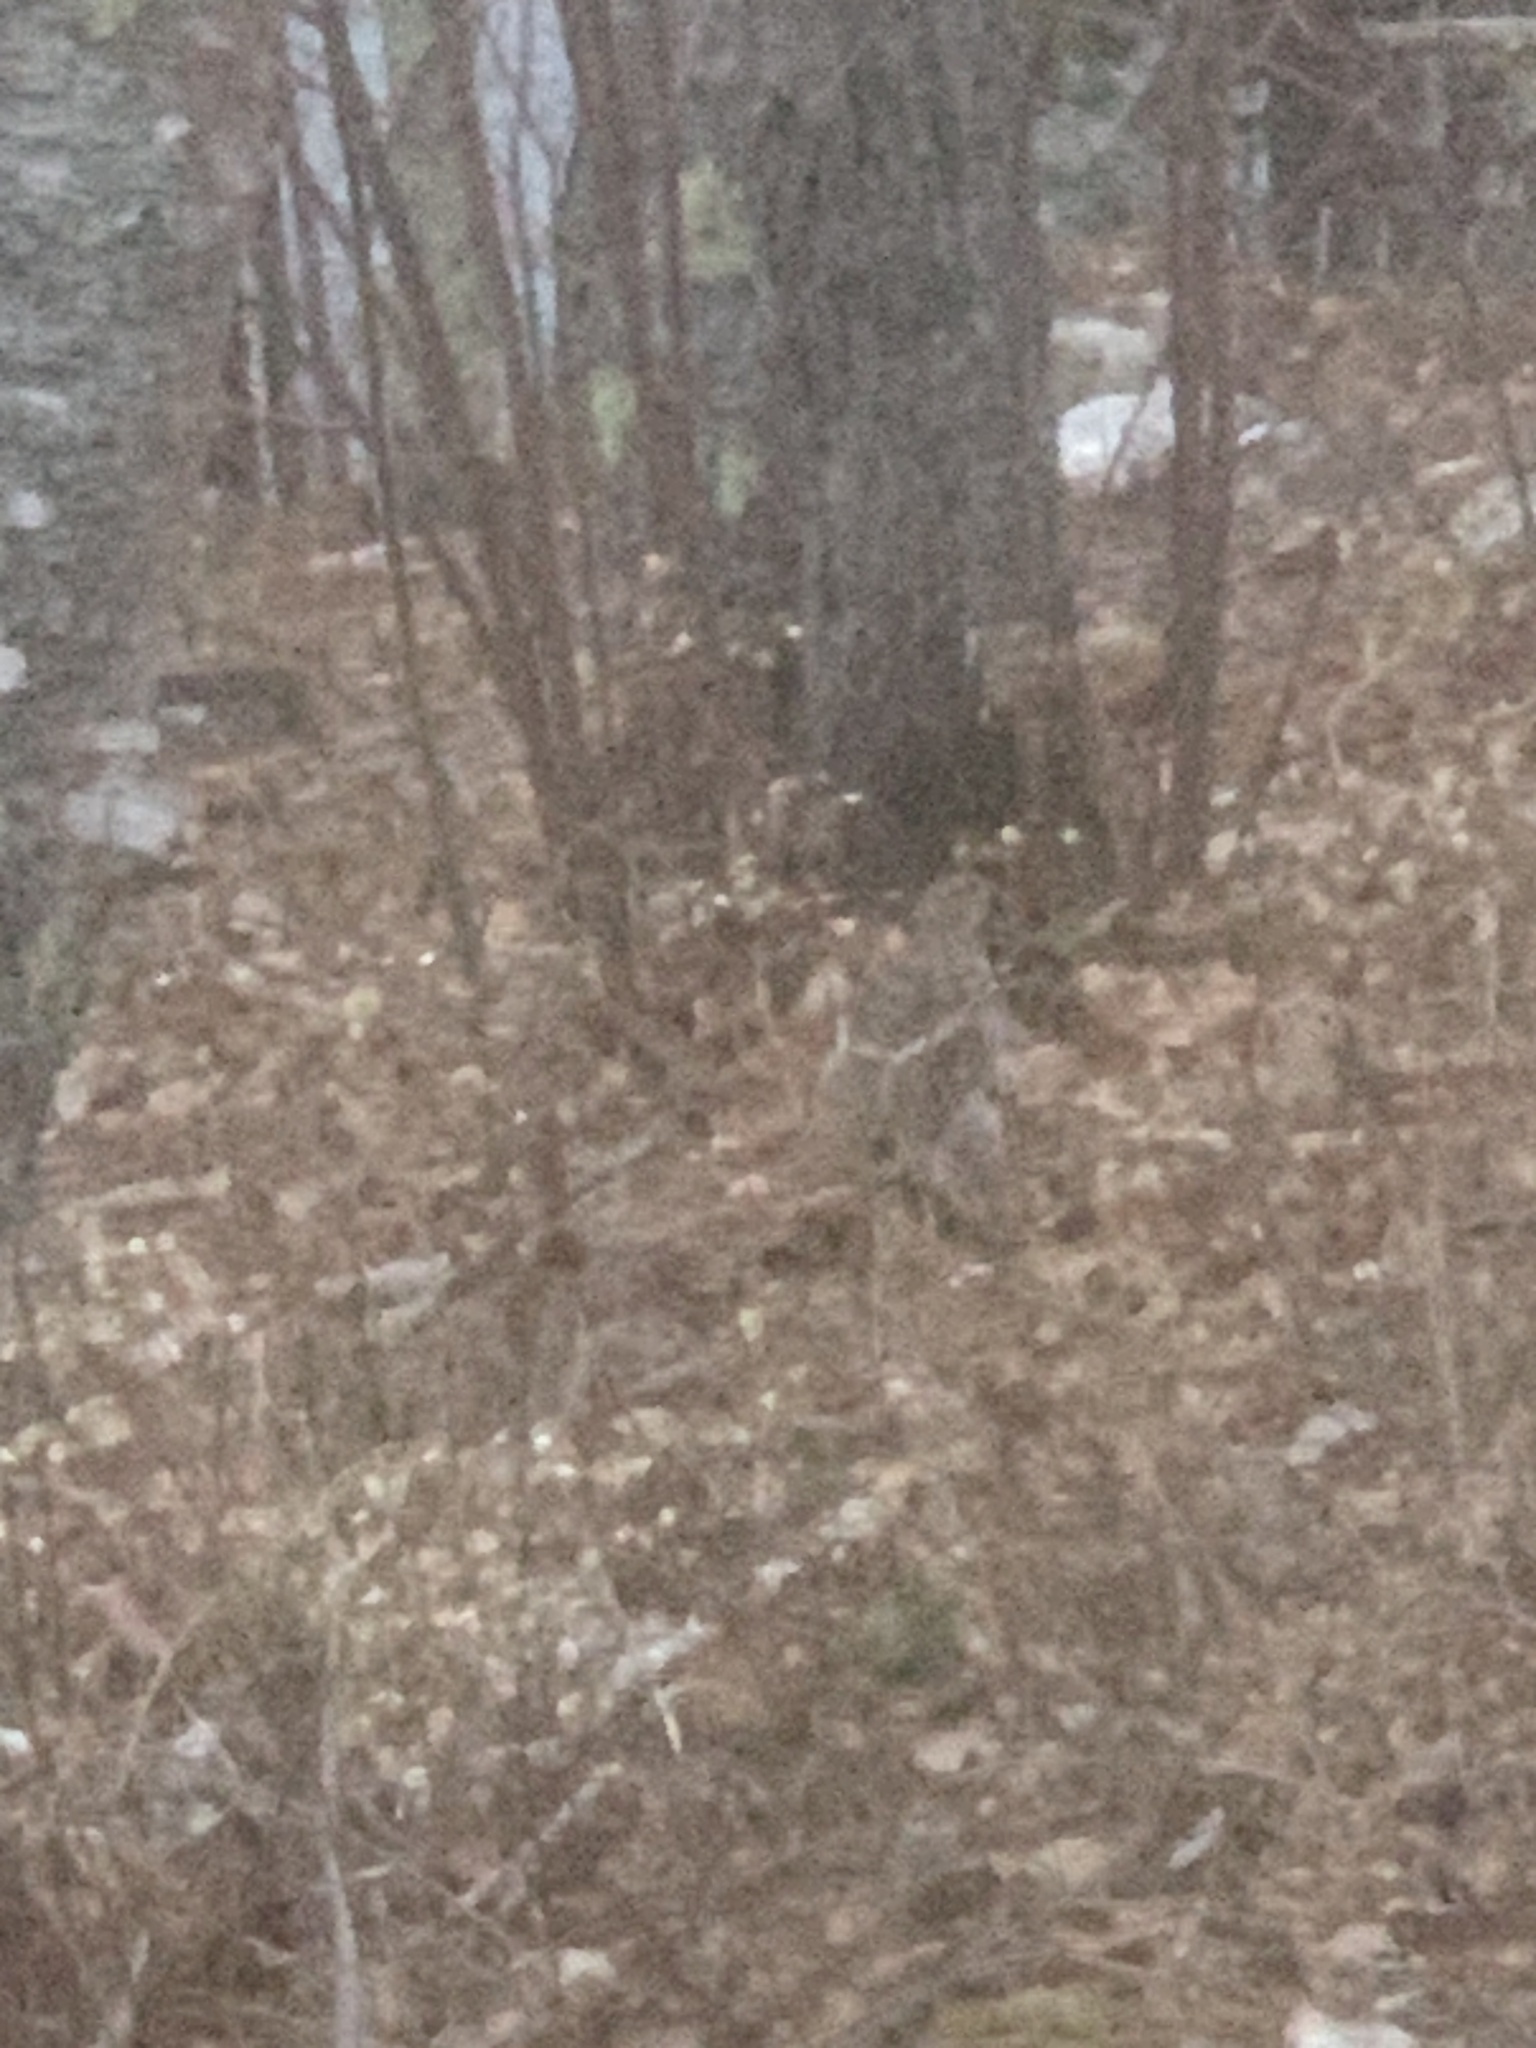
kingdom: Animalia
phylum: Chordata
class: Aves
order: Galliformes
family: Phasianidae
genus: Bonasa
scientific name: Bonasa umbellus
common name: Ruffed grouse
